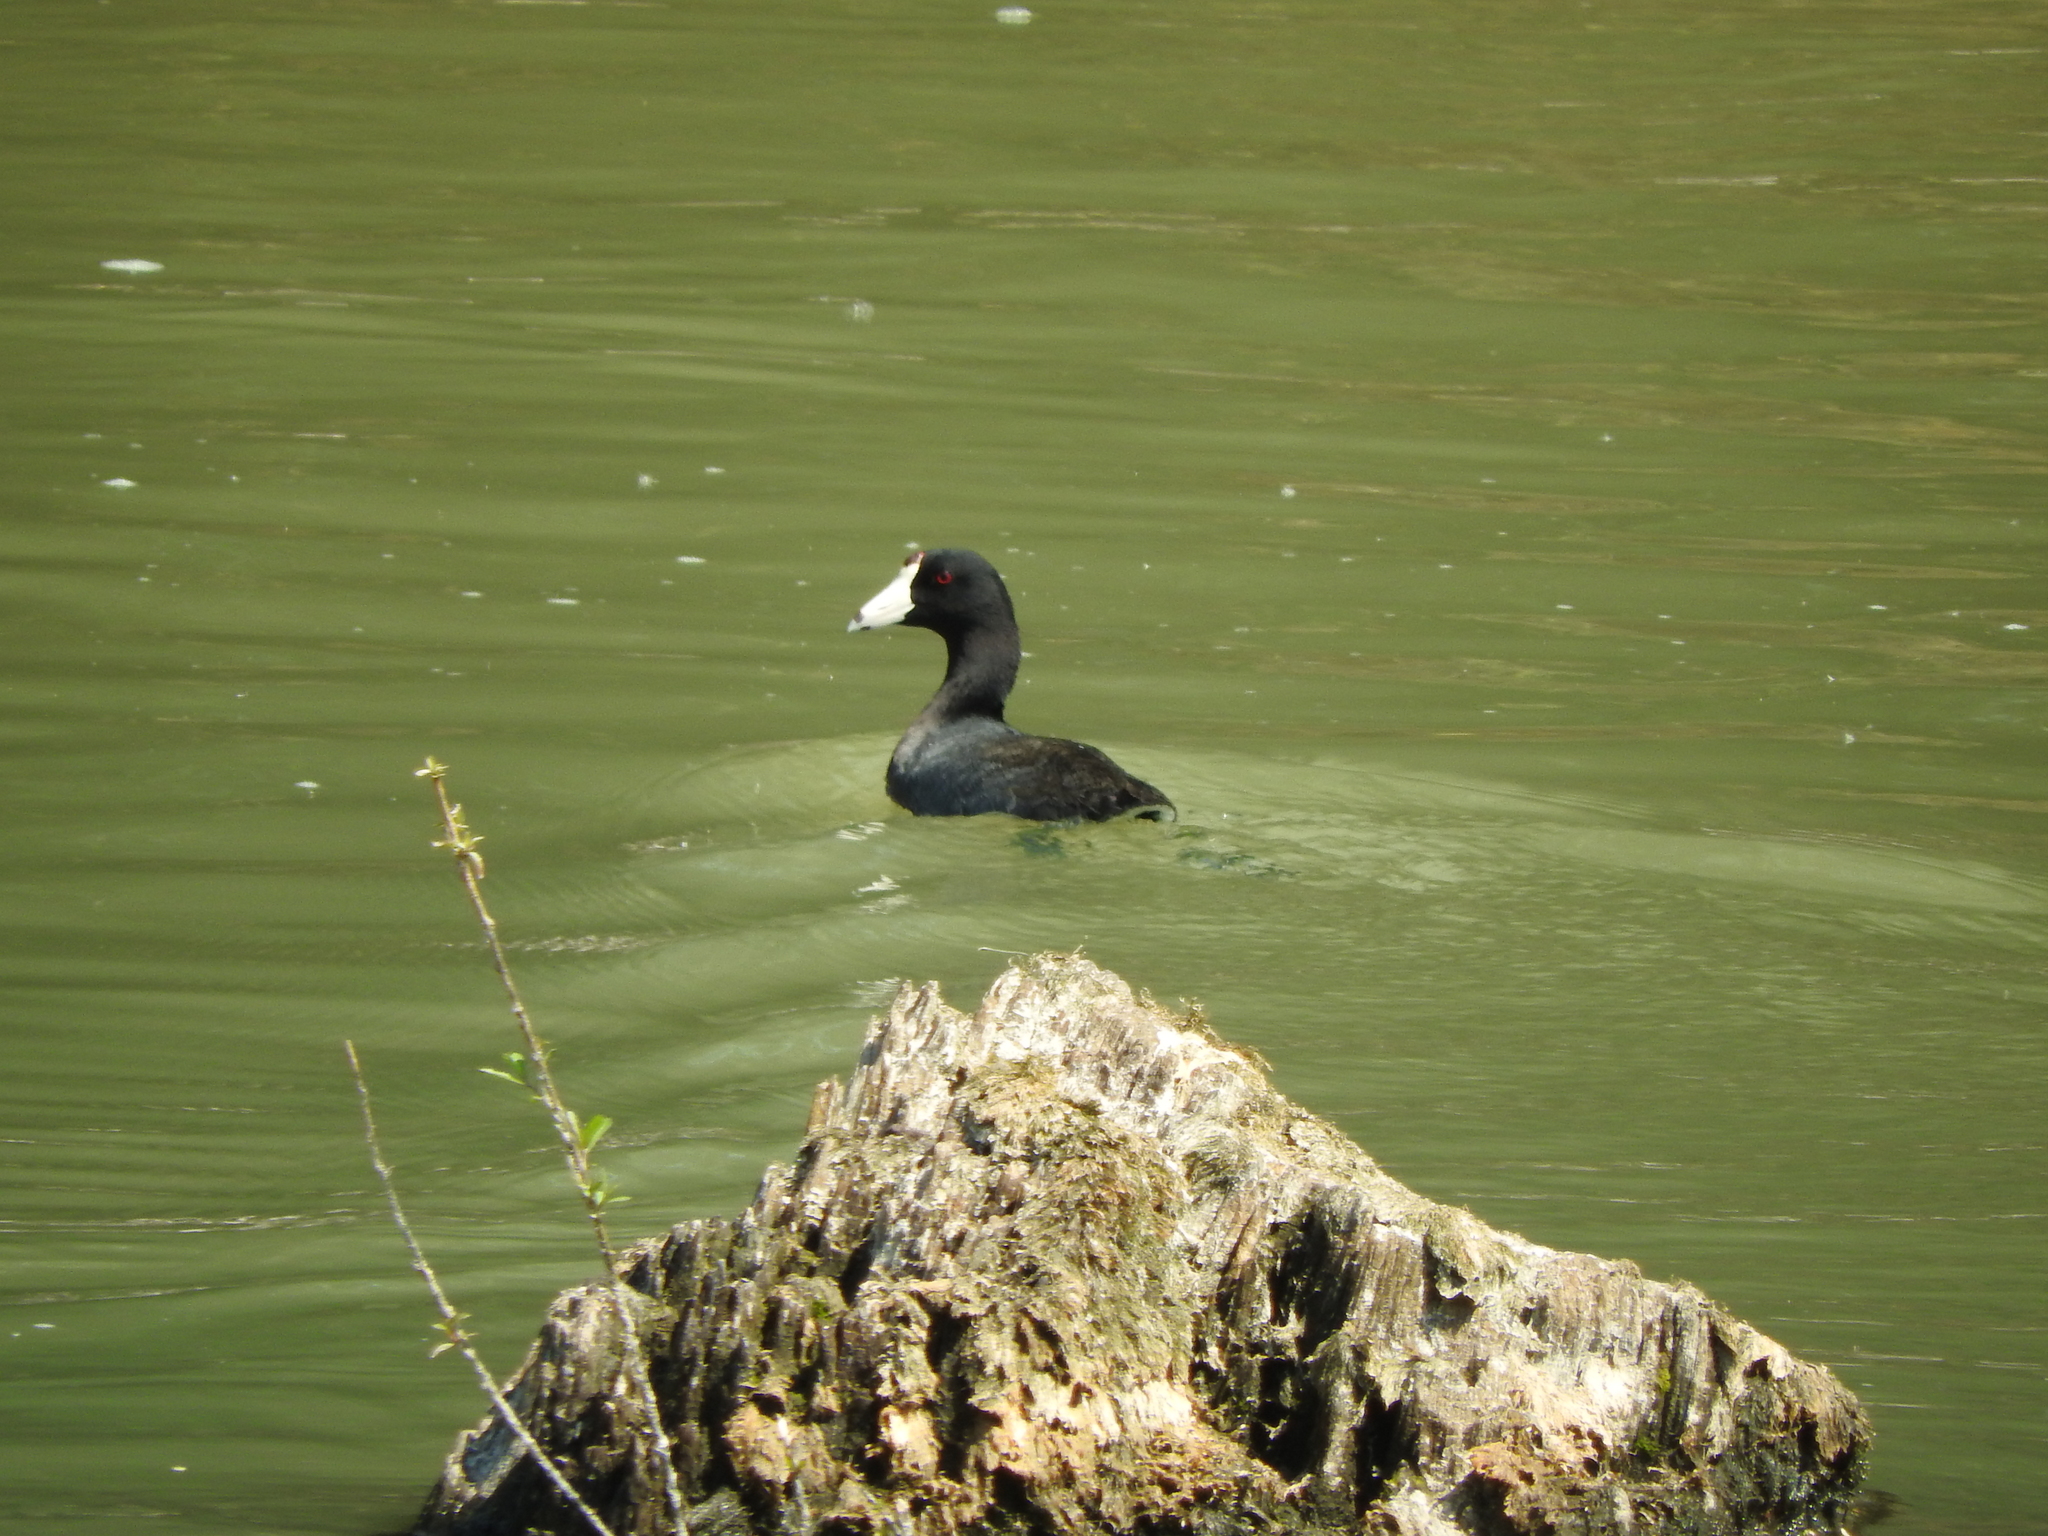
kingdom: Animalia
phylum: Chordata
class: Aves
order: Gruiformes
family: Rallidae
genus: Fulica
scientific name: Fulica americana
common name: American coot
